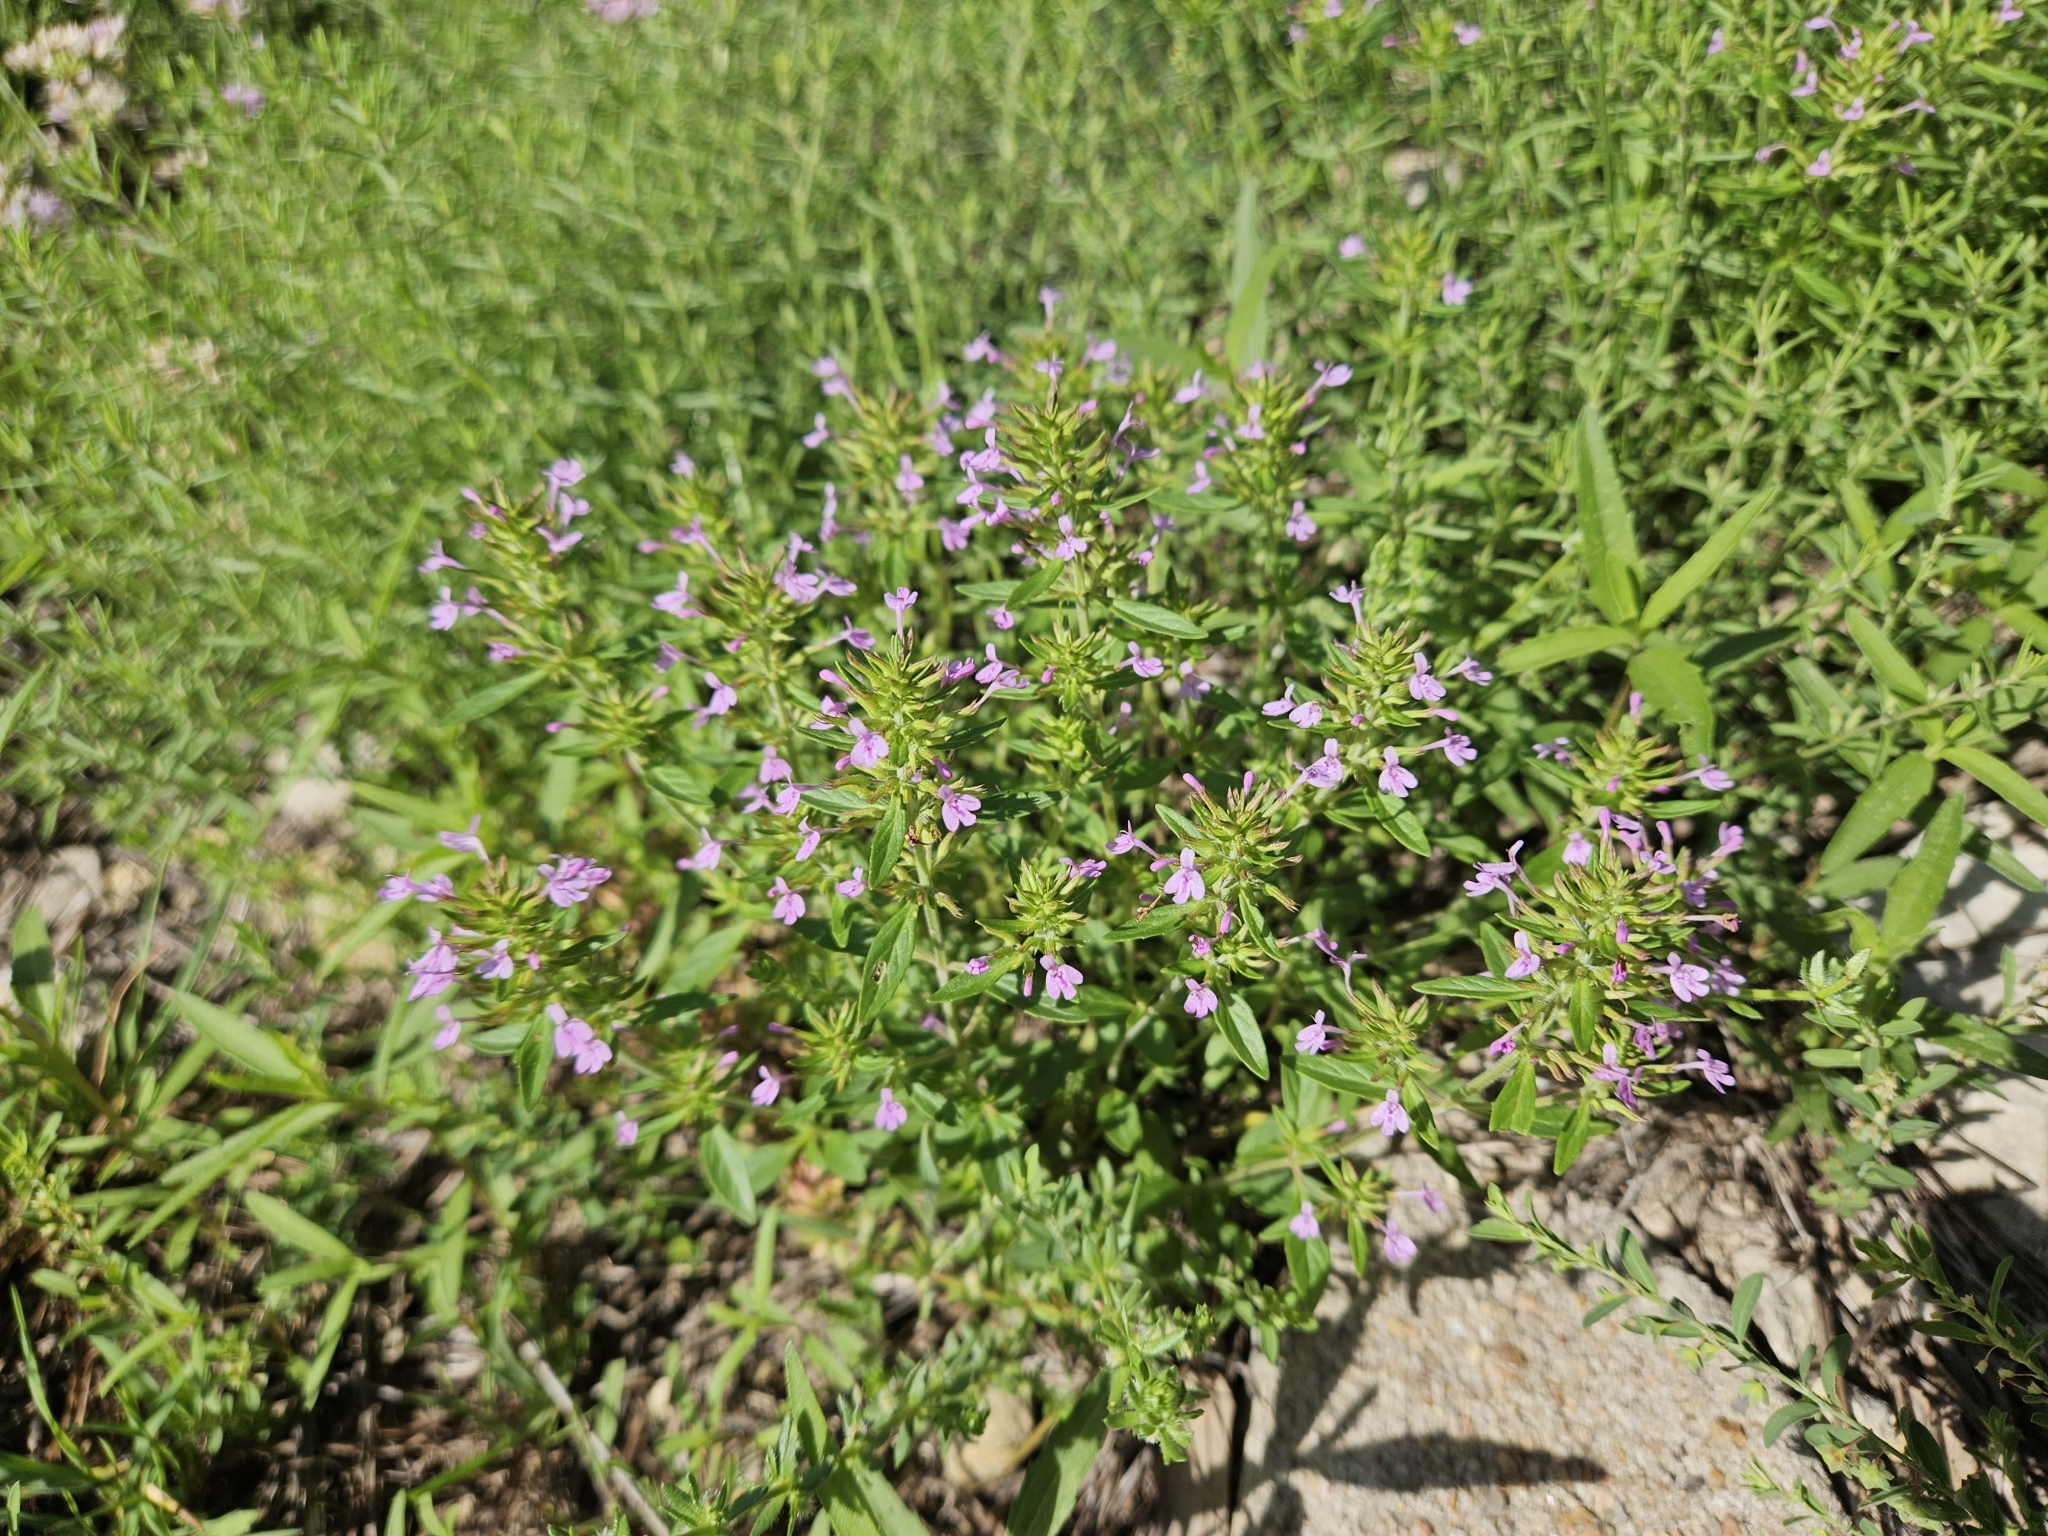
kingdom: Plantae
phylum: Tracheophyta
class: Magnoliopsida
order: Lamiales
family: Lamiaceae
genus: Hedeoma
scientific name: Hedeoma acinoides
